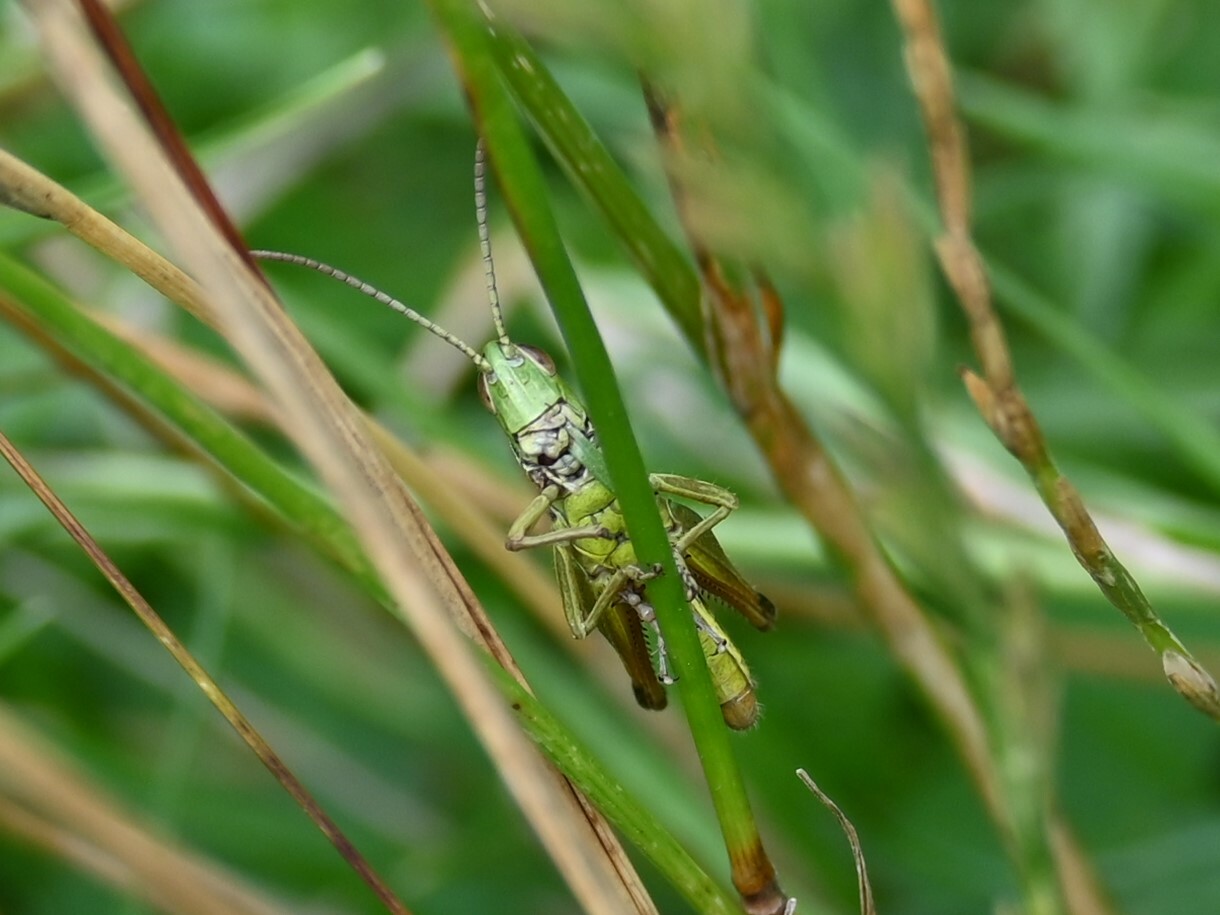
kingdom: Animalia
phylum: Arthropoda
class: Insecta
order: Orthoptera
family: Acrididae
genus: Pseudochorthippus
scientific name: Pseudochorthippus parallelus
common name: Meadow grasshopper
